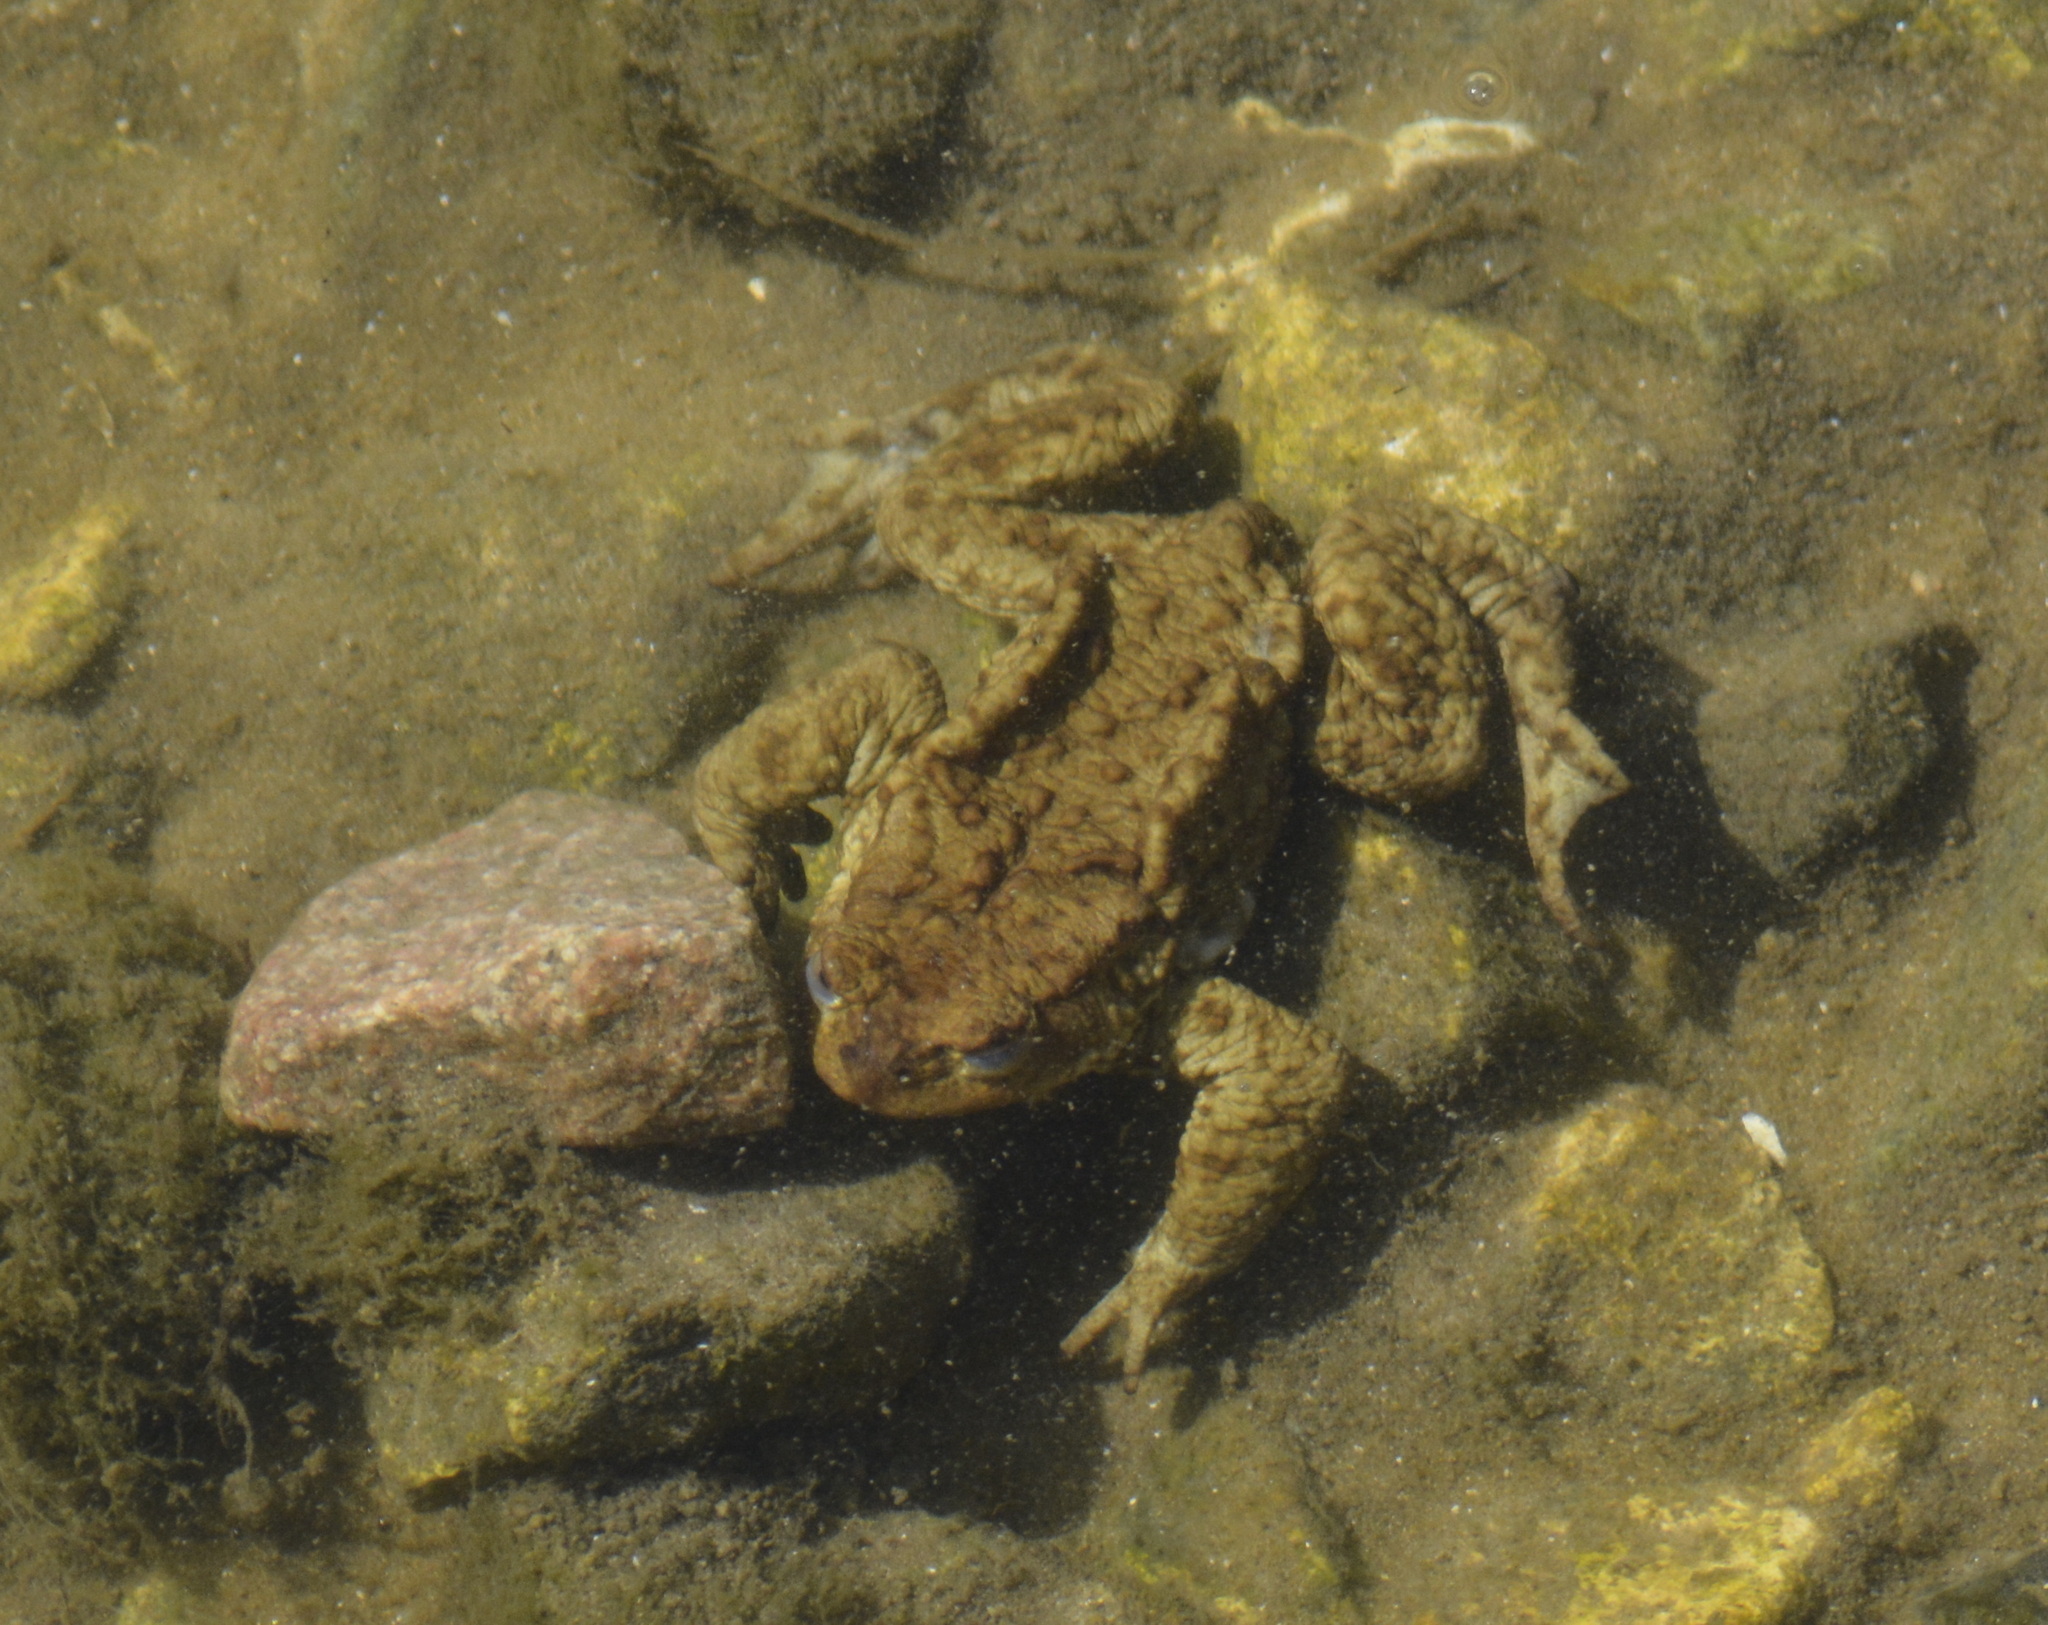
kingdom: Animalia
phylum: Chordata
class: Amphibia
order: Anura
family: Bufonidae
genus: Bufo
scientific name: Bufo bufo
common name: Common toad
